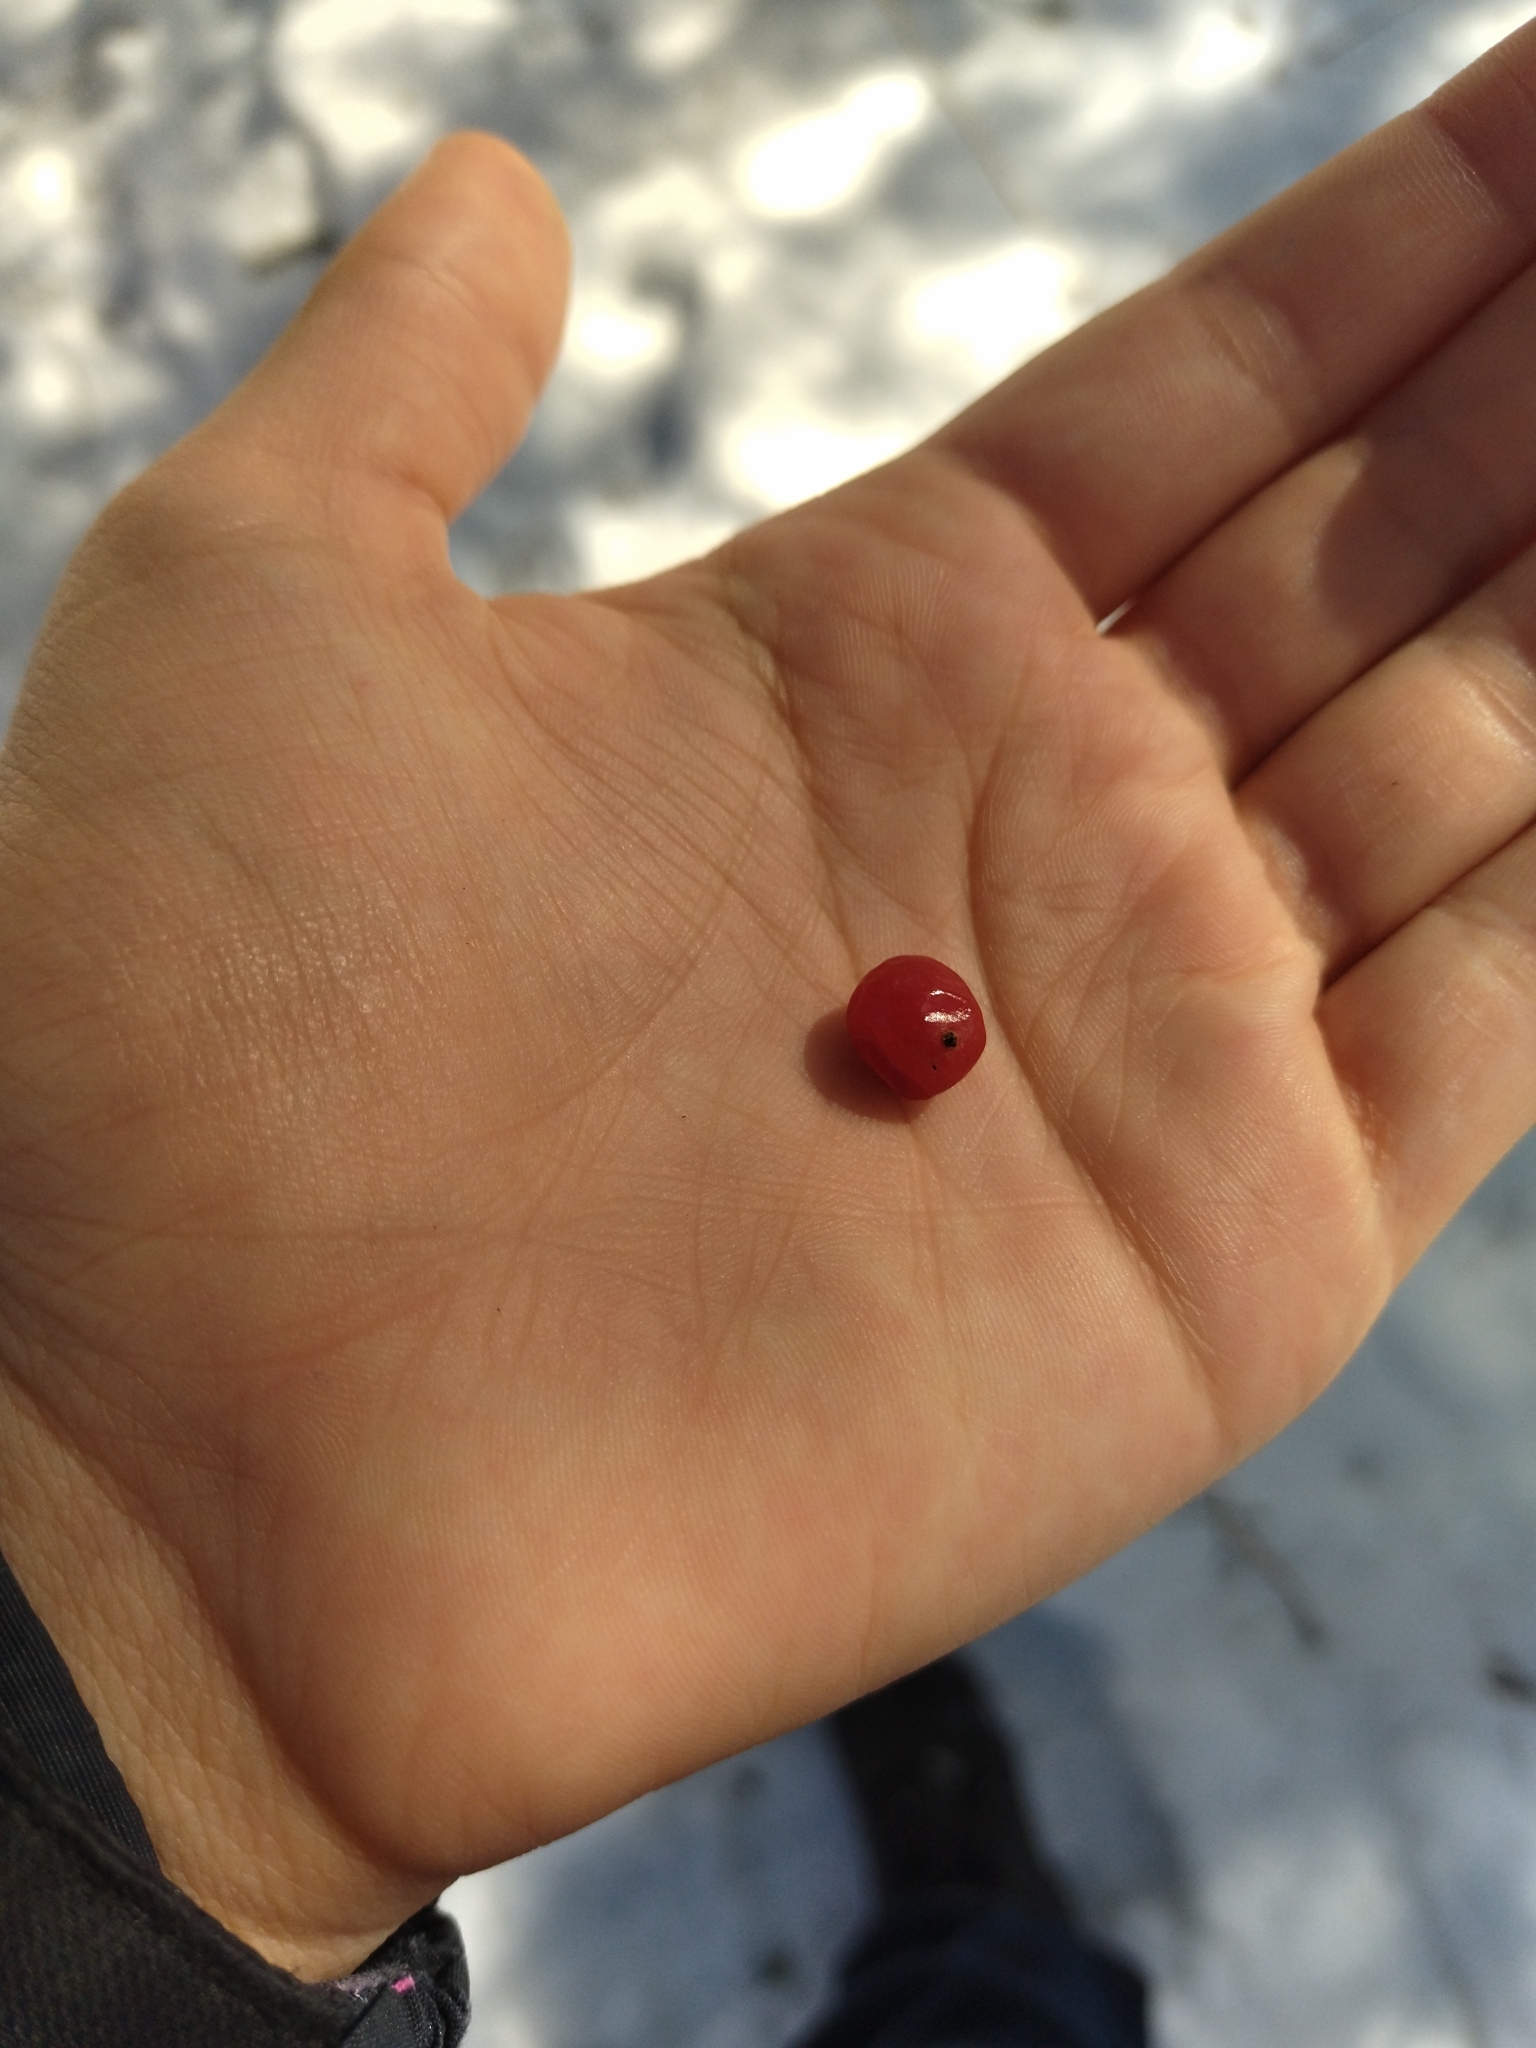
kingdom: Plantae
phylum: Tracheophyta
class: Magnoliopsida
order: Dipsacales
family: Viburnaceae
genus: Viburnum
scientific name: Viburnum opulus
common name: Guelder-rose
